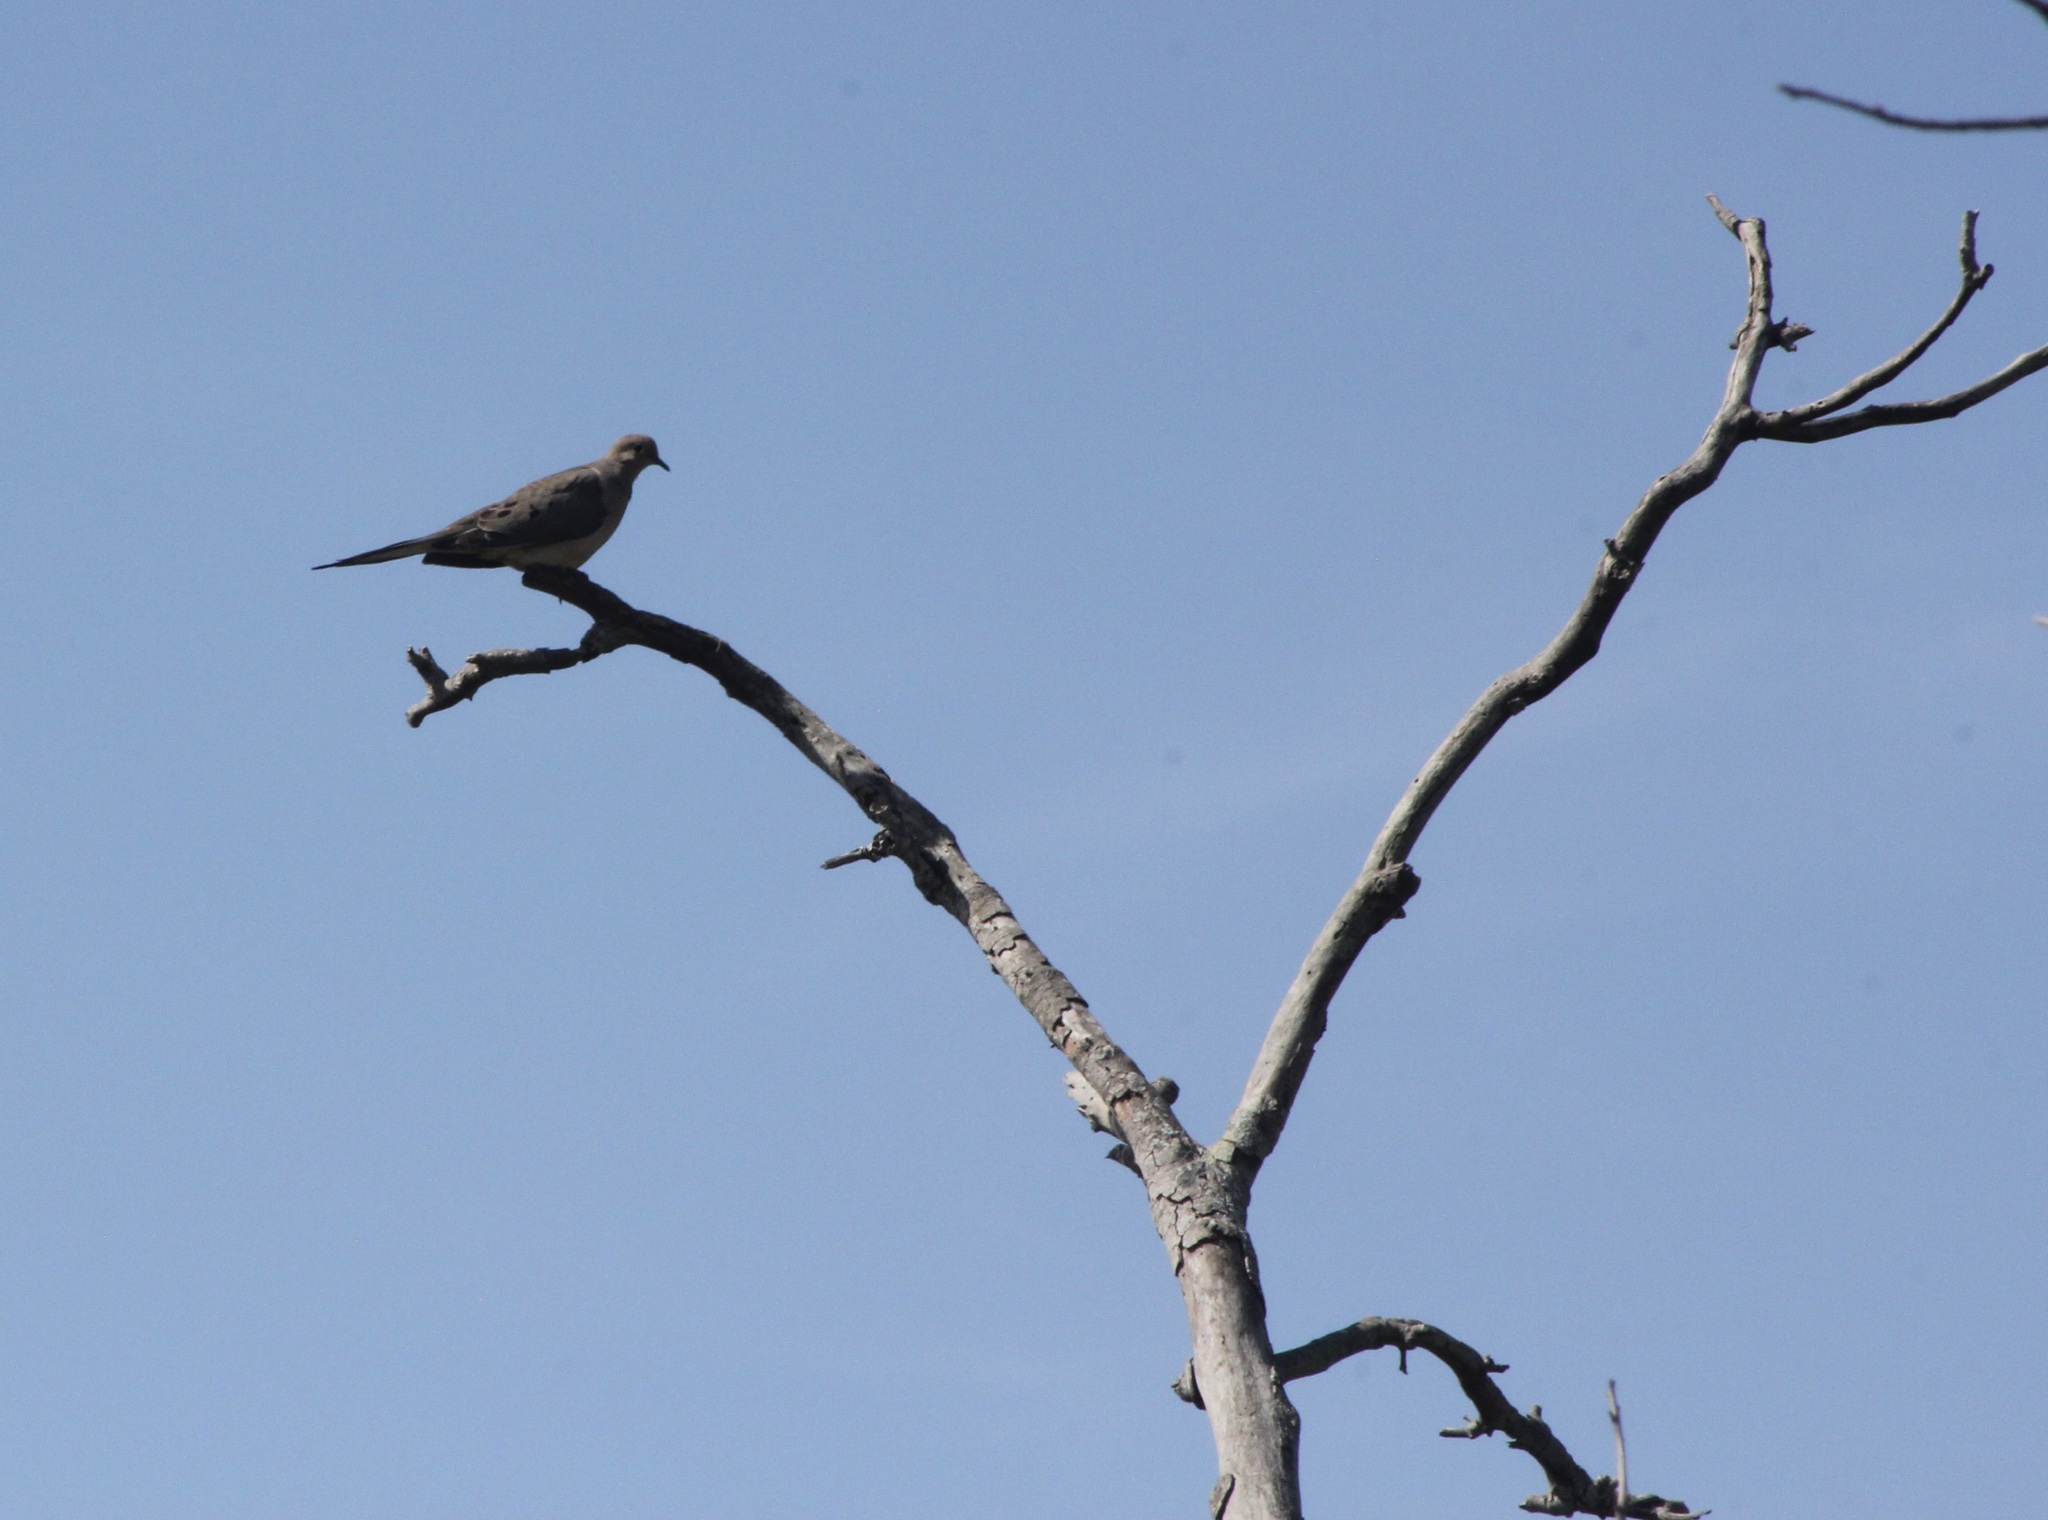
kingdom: Animalia
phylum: Chordata
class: Aves
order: Columbiformes
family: Columbidae
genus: Zenaida
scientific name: Zenaida macroura
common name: Mourning dove
